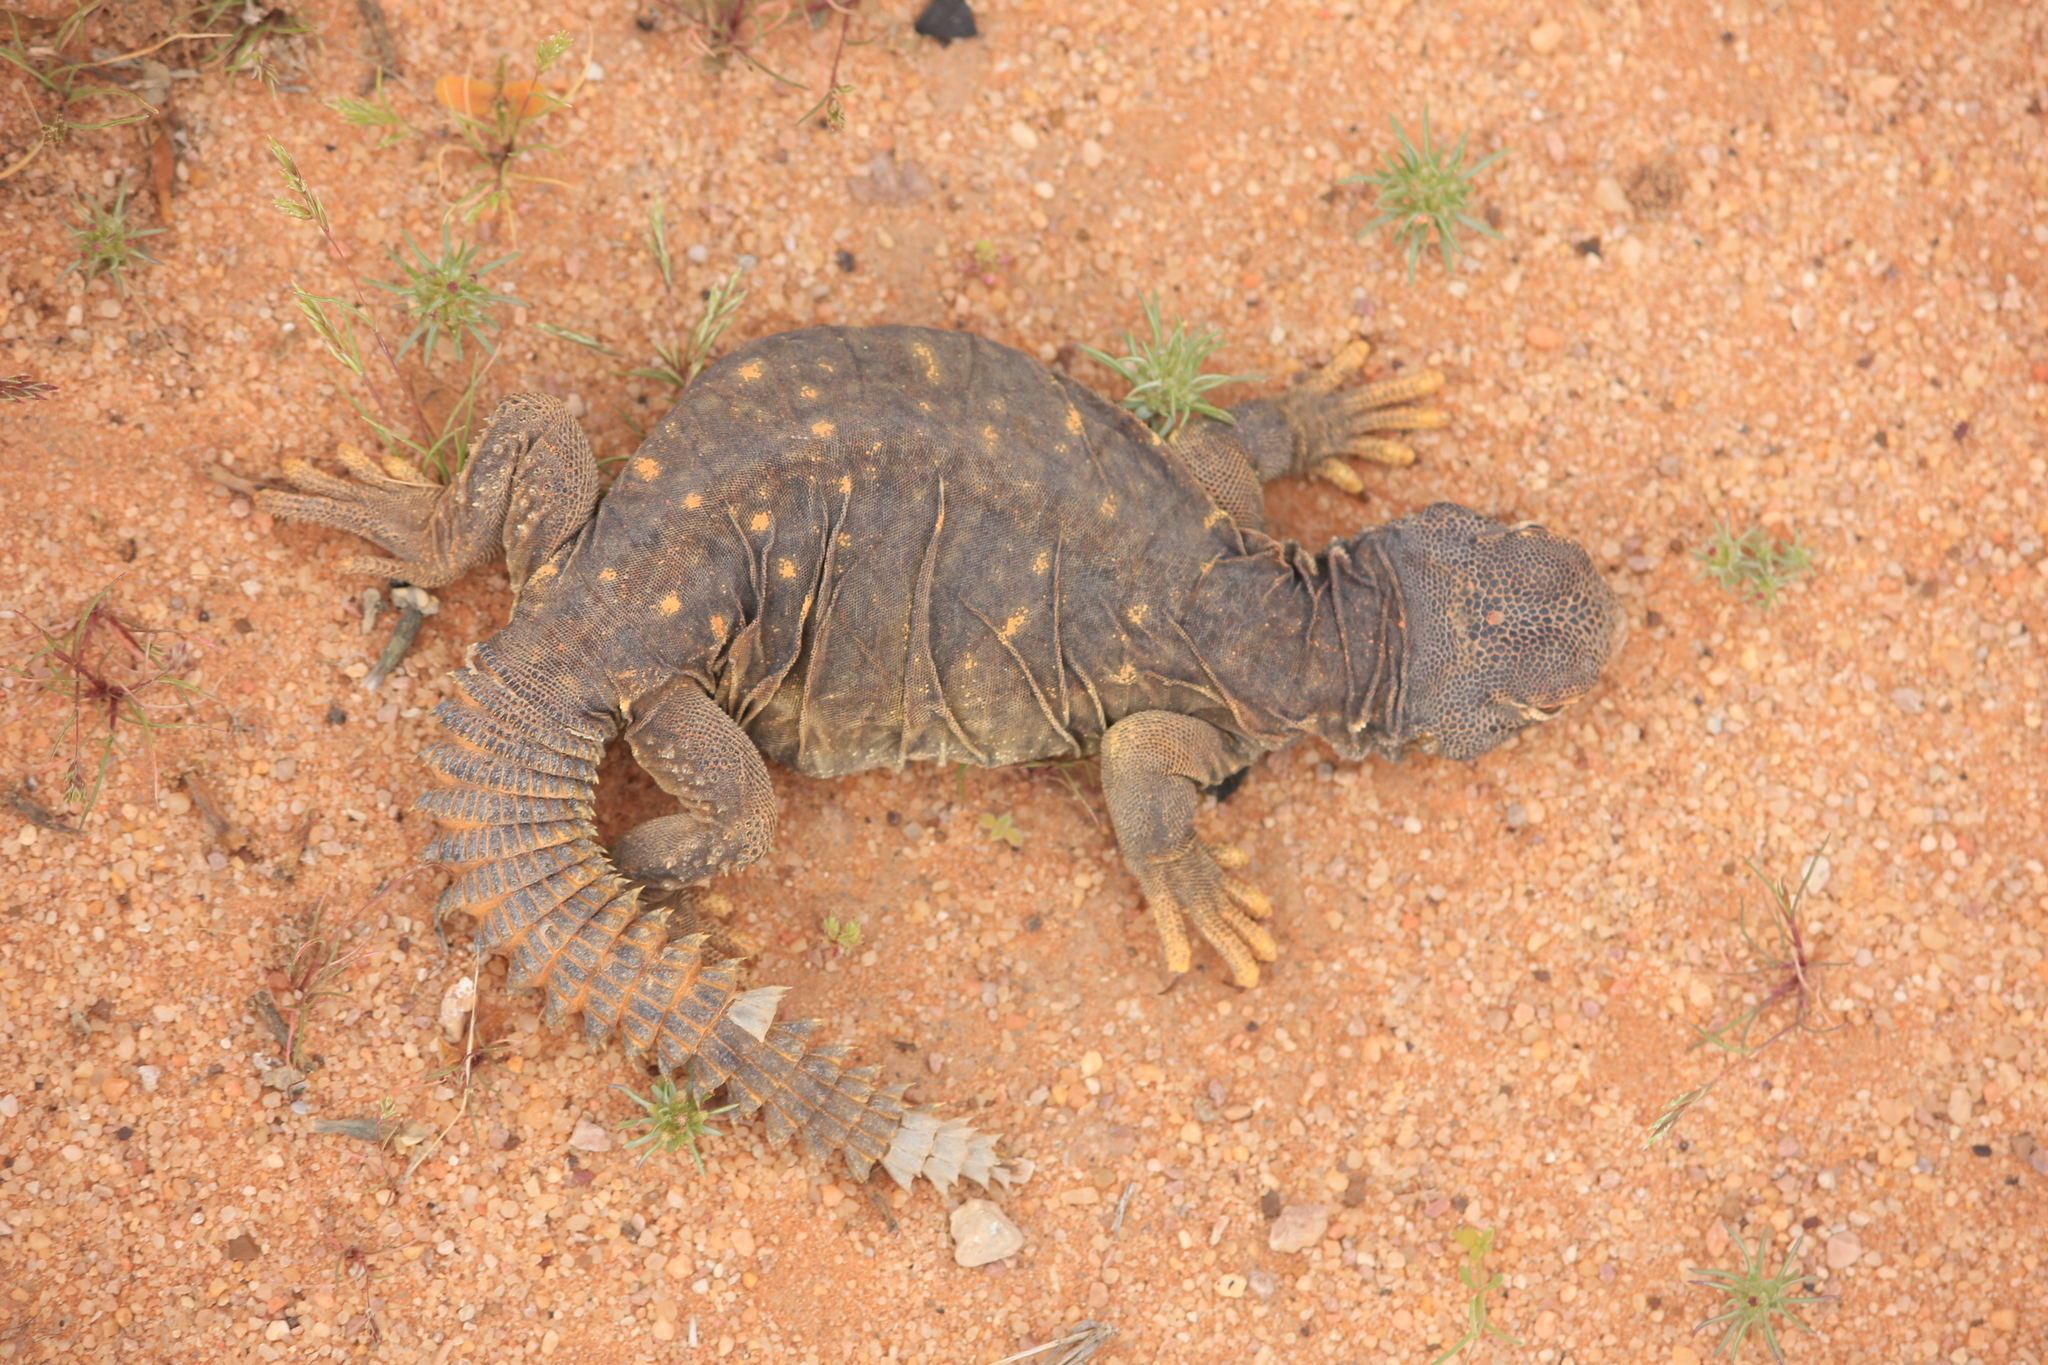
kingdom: Animalia
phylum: Chordata
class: Squamata
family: Agamidae
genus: Uromastyx
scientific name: Uromastyx aegyptia
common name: Egyptian mastigure
